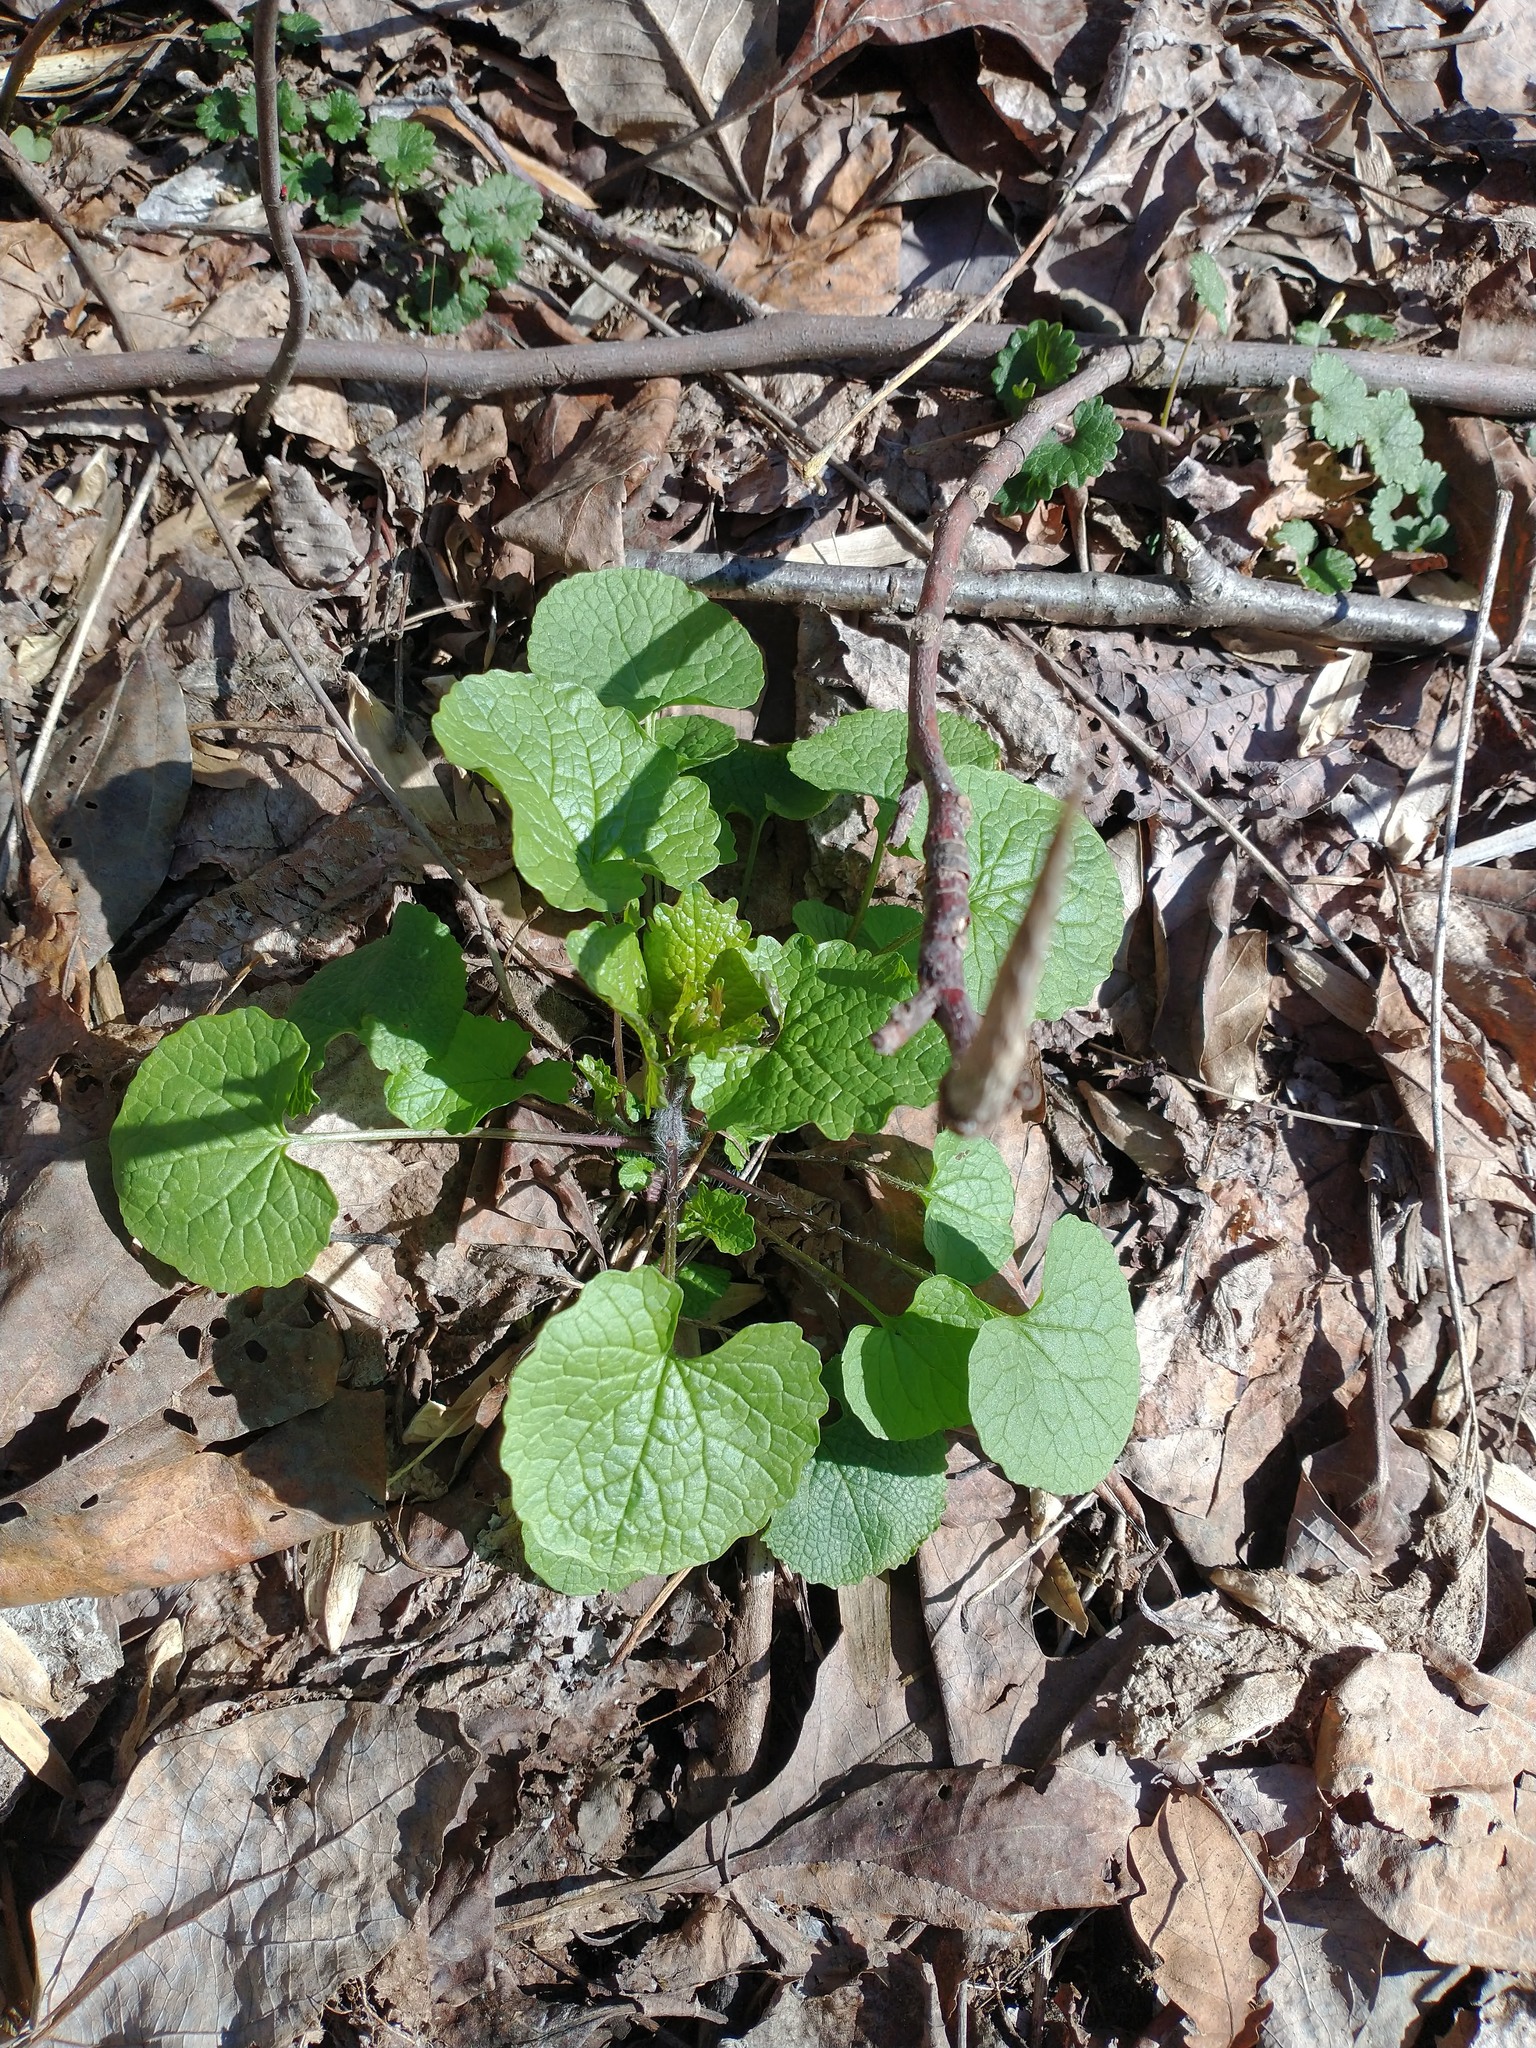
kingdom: Plantae
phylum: Tracheophyta
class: Magnoliopsida
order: Brassicales
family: Brassicaceae
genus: Alliaria
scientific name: Alliaria petiolata
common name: Garlic mustard
